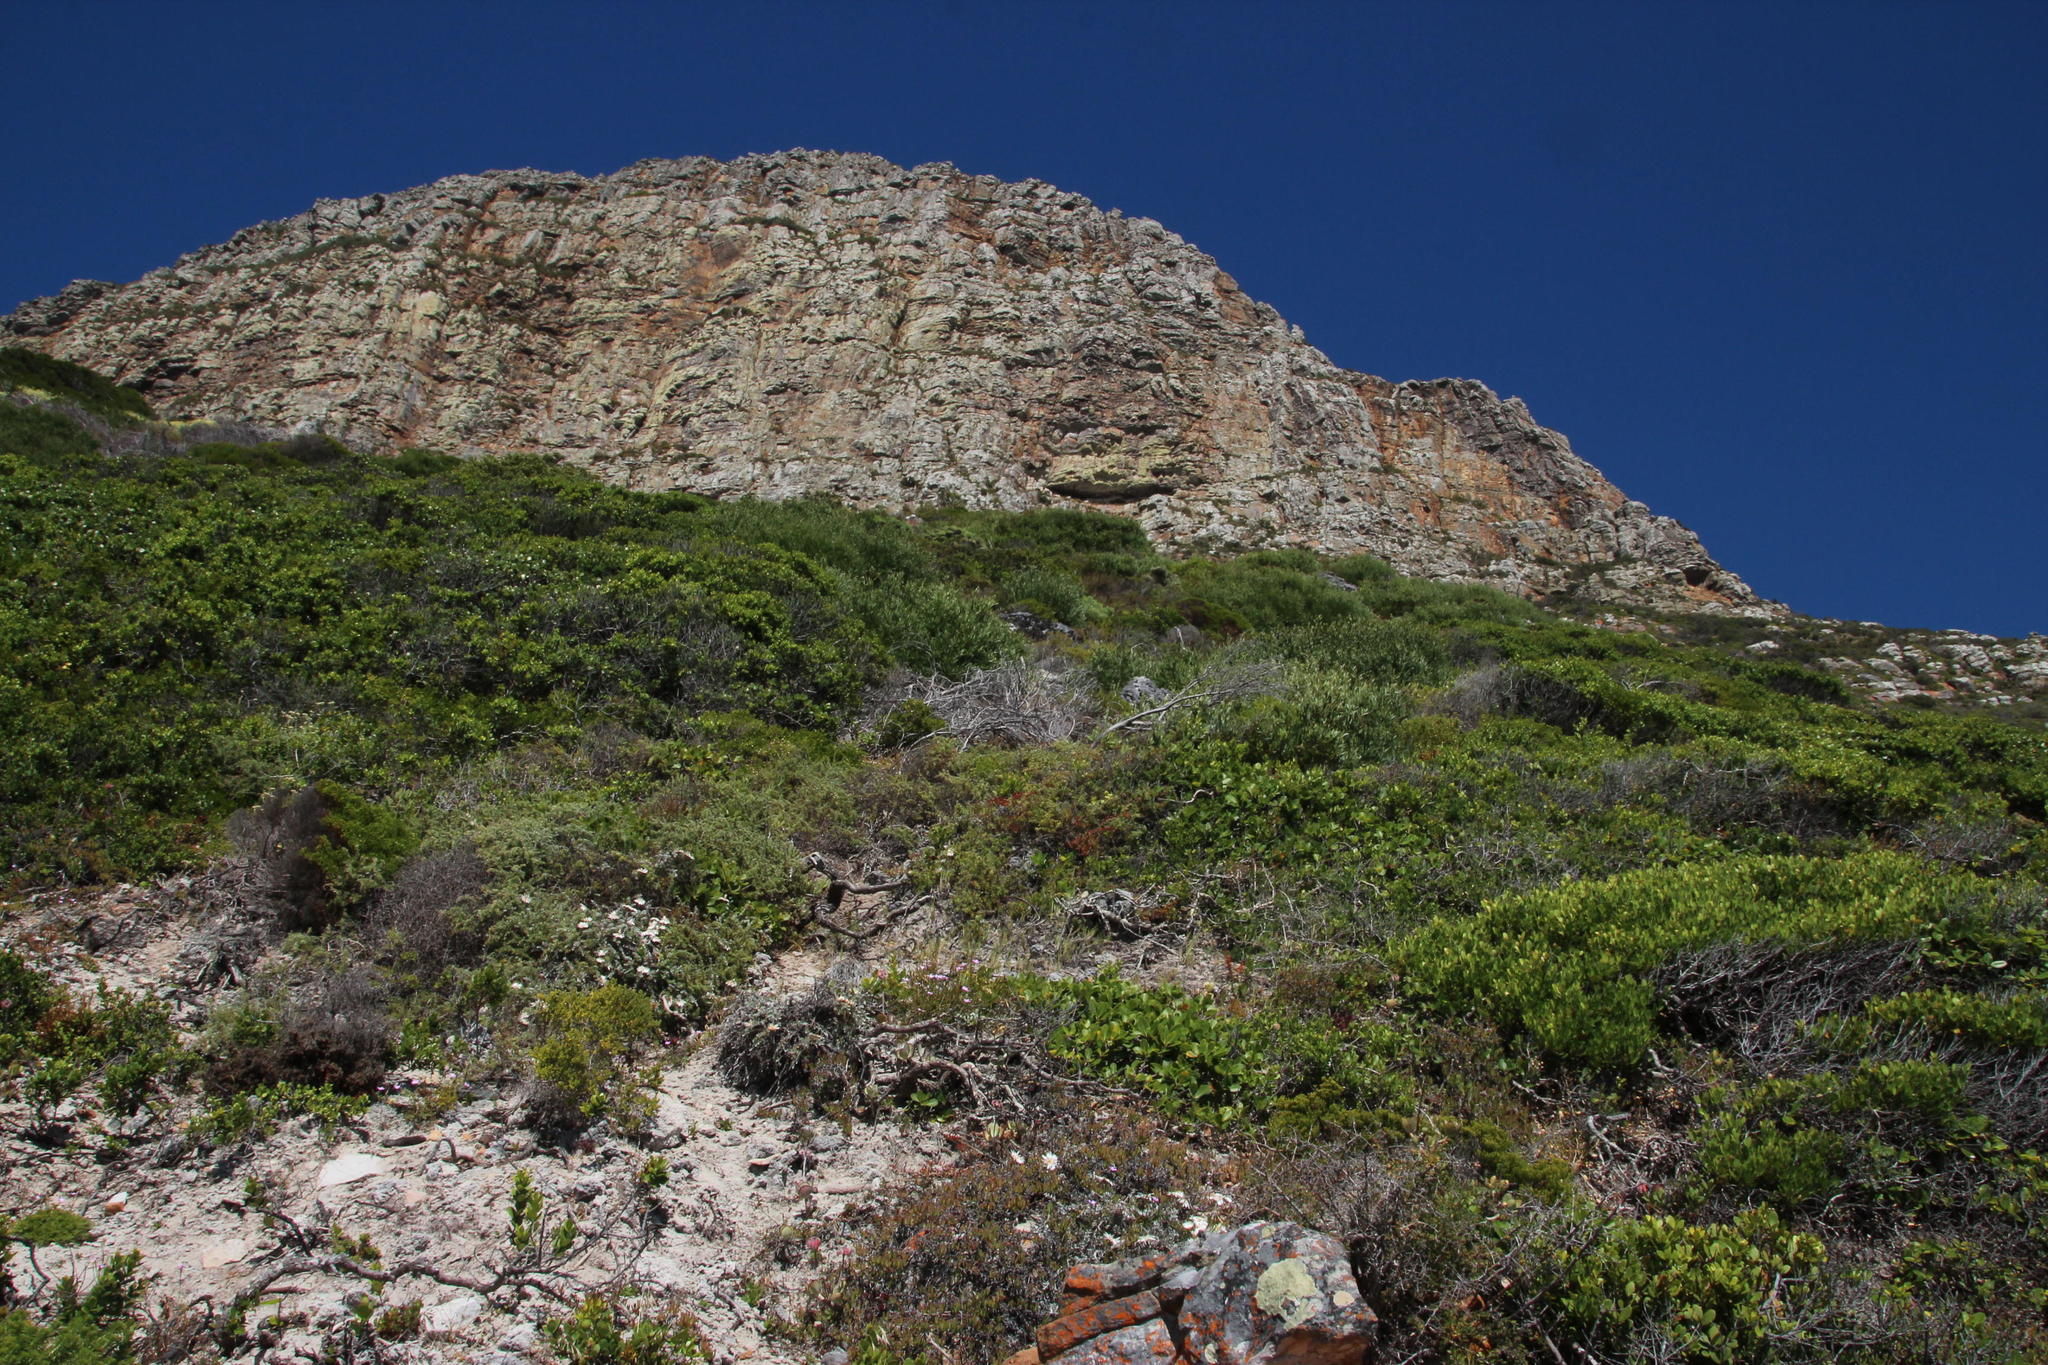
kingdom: Plantae
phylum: Tracheophyta
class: Magnoliopsida
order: Asterales
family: Asteraceae
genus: Cullumia
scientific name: Cullumia squarrosa
